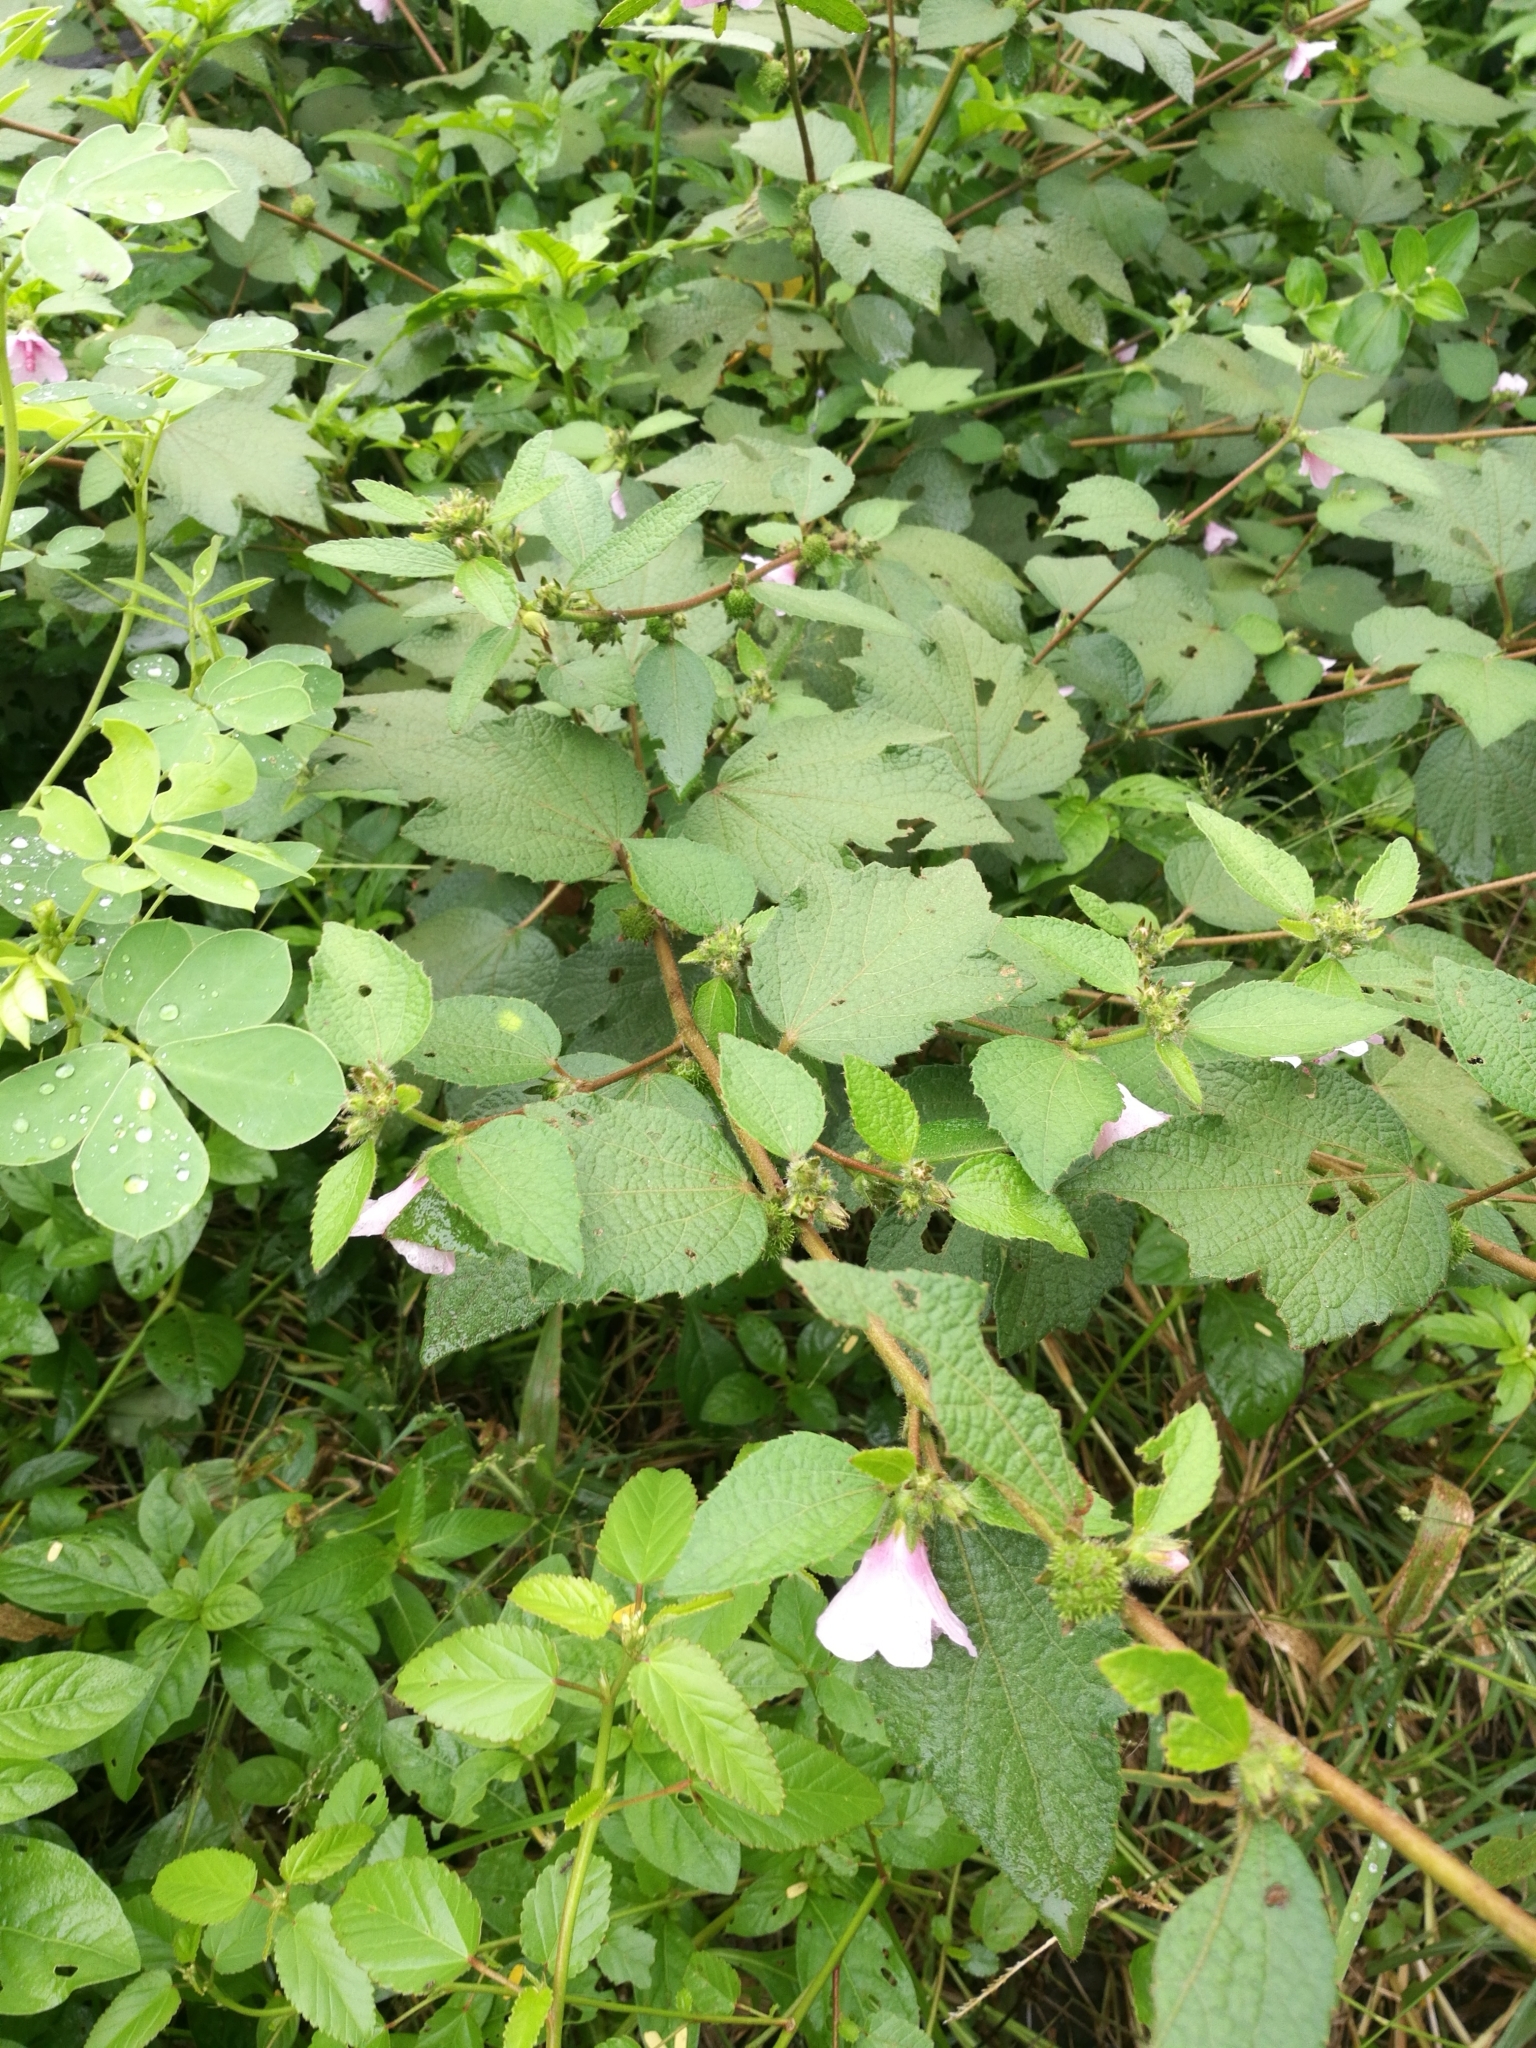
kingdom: Plantae
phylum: Tracheophyta
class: Magnoliopsida
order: Malvales
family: Malvaceae
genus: Urena
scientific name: Urena lobata
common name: Caesarweed
